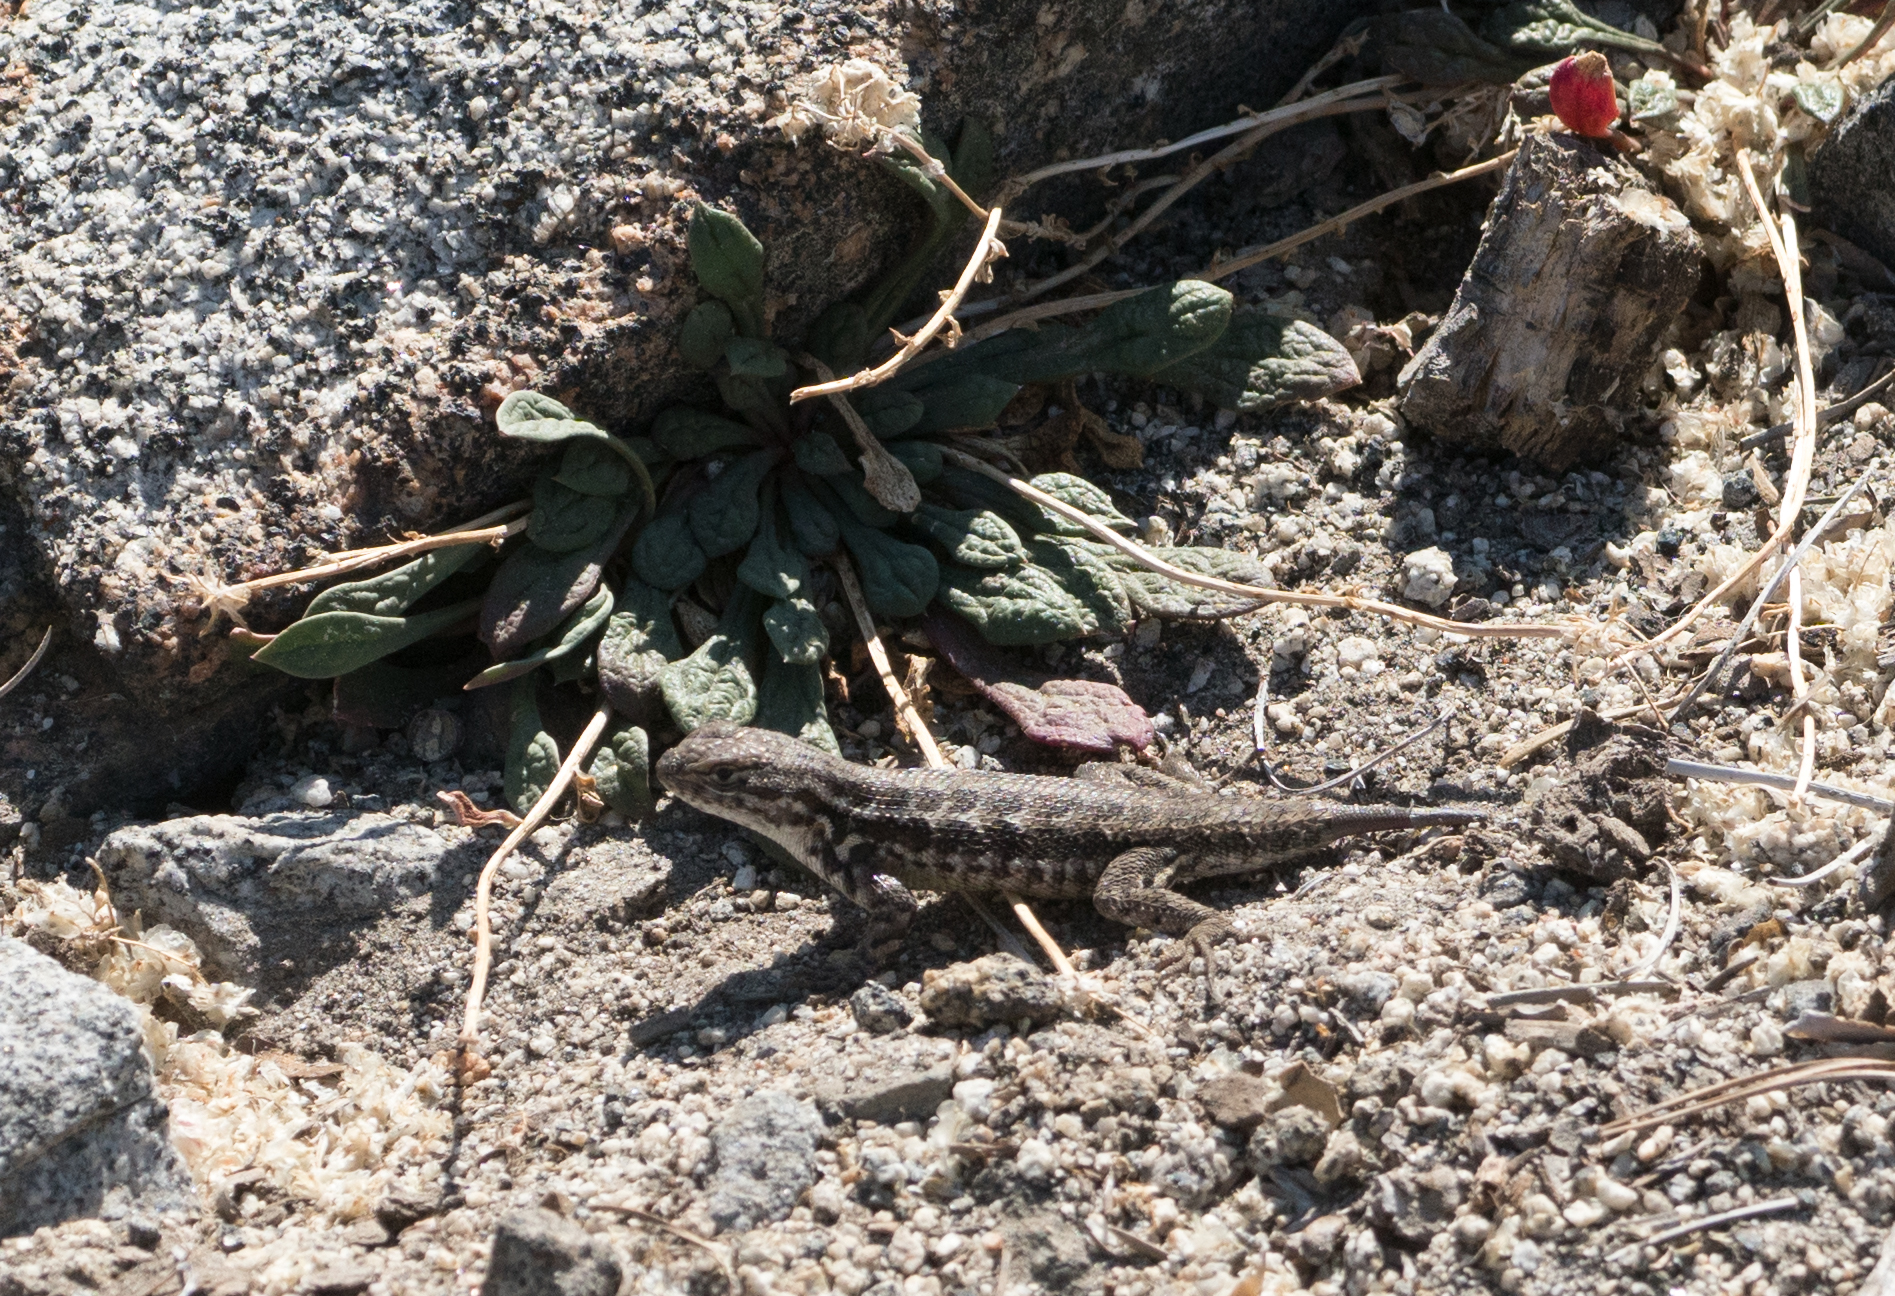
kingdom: Animalia
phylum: Chordata
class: Squamata
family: Phrynosomatidae
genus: Sceloporus
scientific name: Sceloporus graciosus
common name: Sagebrush lizard
